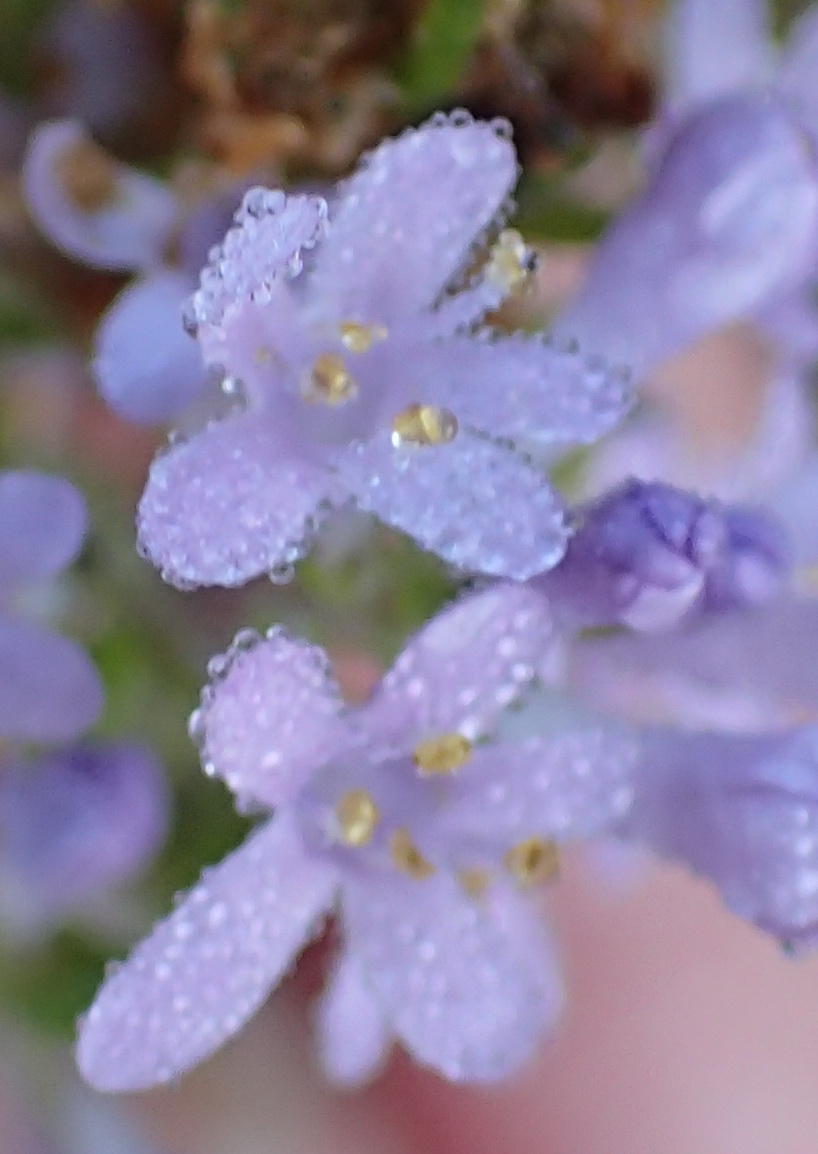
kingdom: Plantae
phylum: Tracheophyta
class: Magnoliopsida
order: Lamiales
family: Scrophulariaceae
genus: Selago
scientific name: Selago canescens
